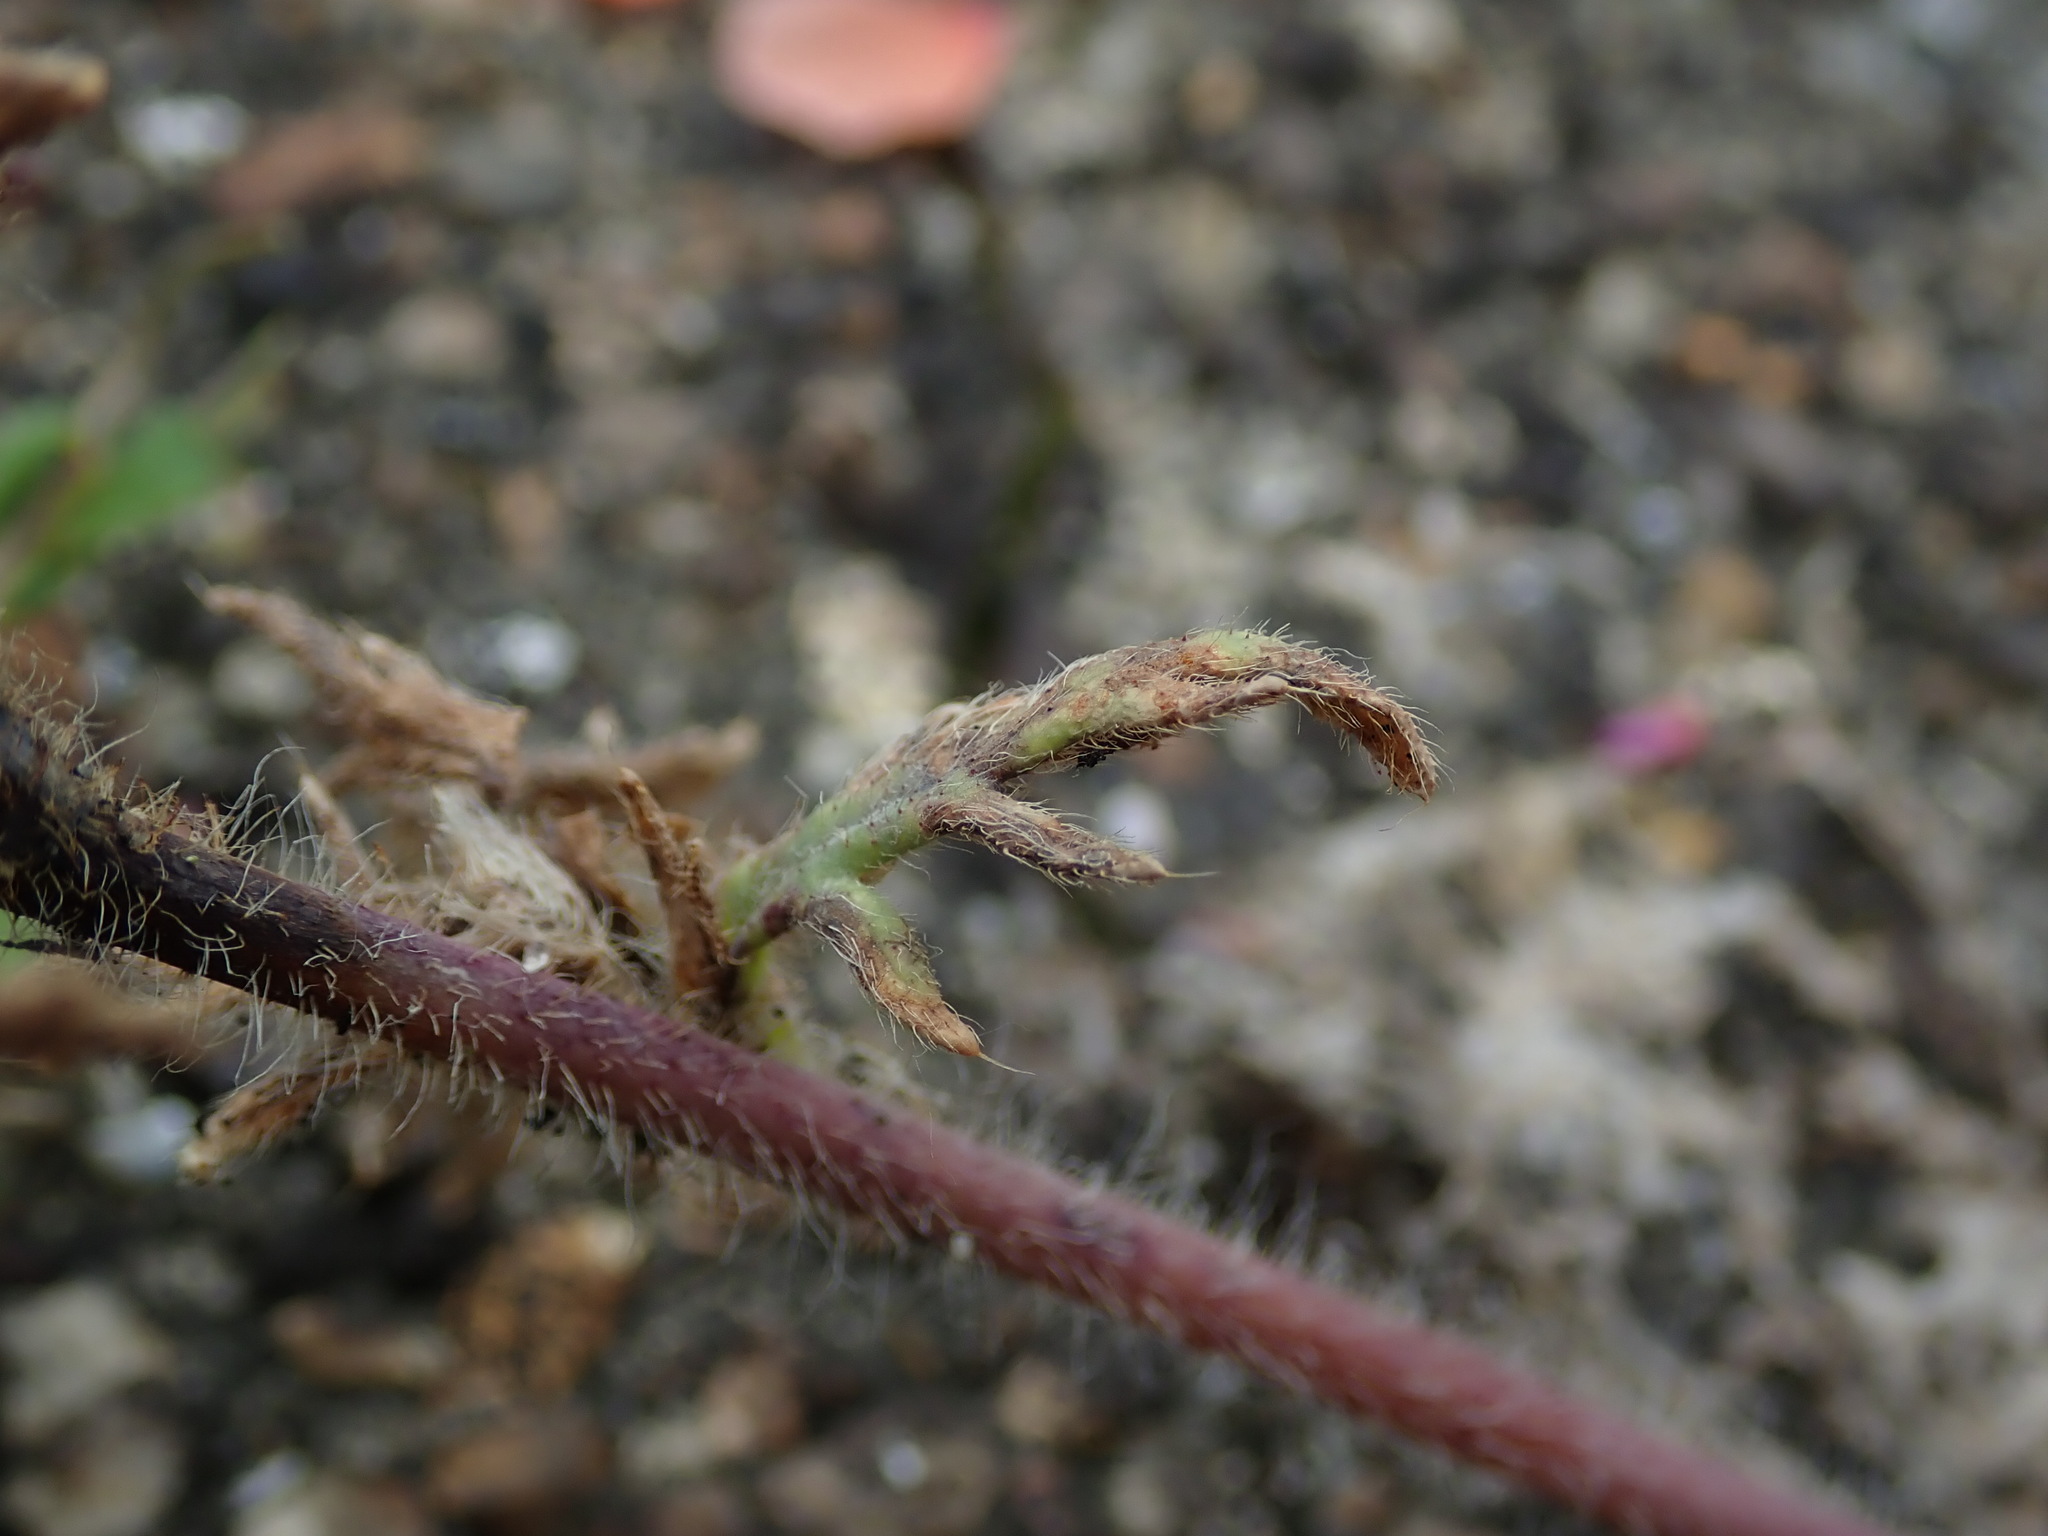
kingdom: Plantae
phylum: Tracheophyta
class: Magnoliopsida
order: Ranunculales
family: Papaveraceae
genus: Papaver
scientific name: Papaver dubium
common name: Long-headed poppy
